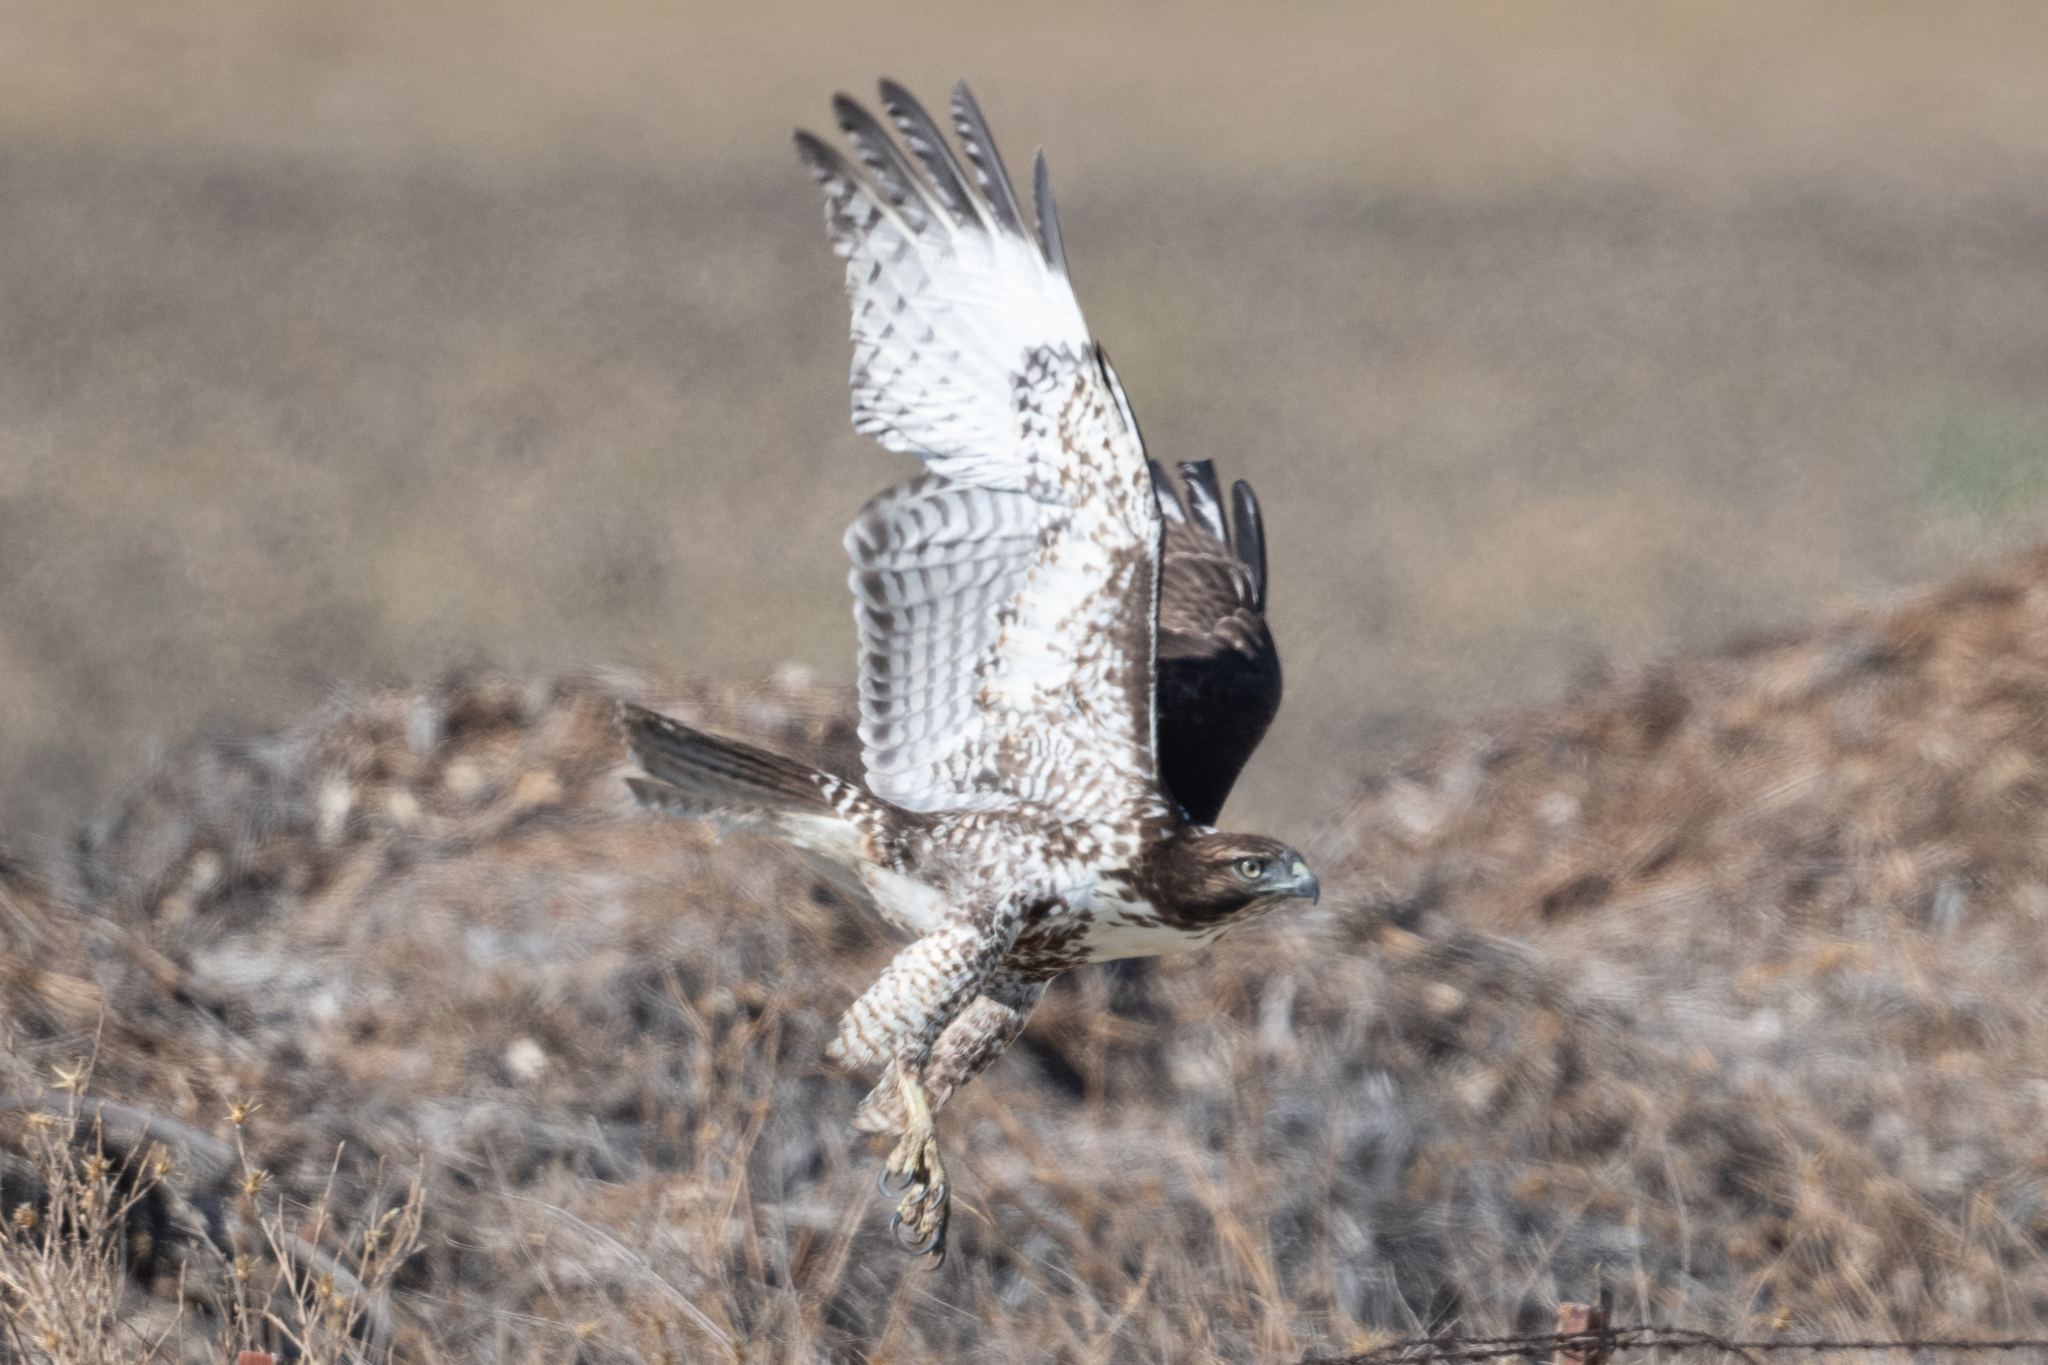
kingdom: Animalia
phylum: Chordata
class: Aves
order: Accipitriformes
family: Accipitridae
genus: Buteo
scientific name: Buteo jamaicensis
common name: Red-tailed hawk
